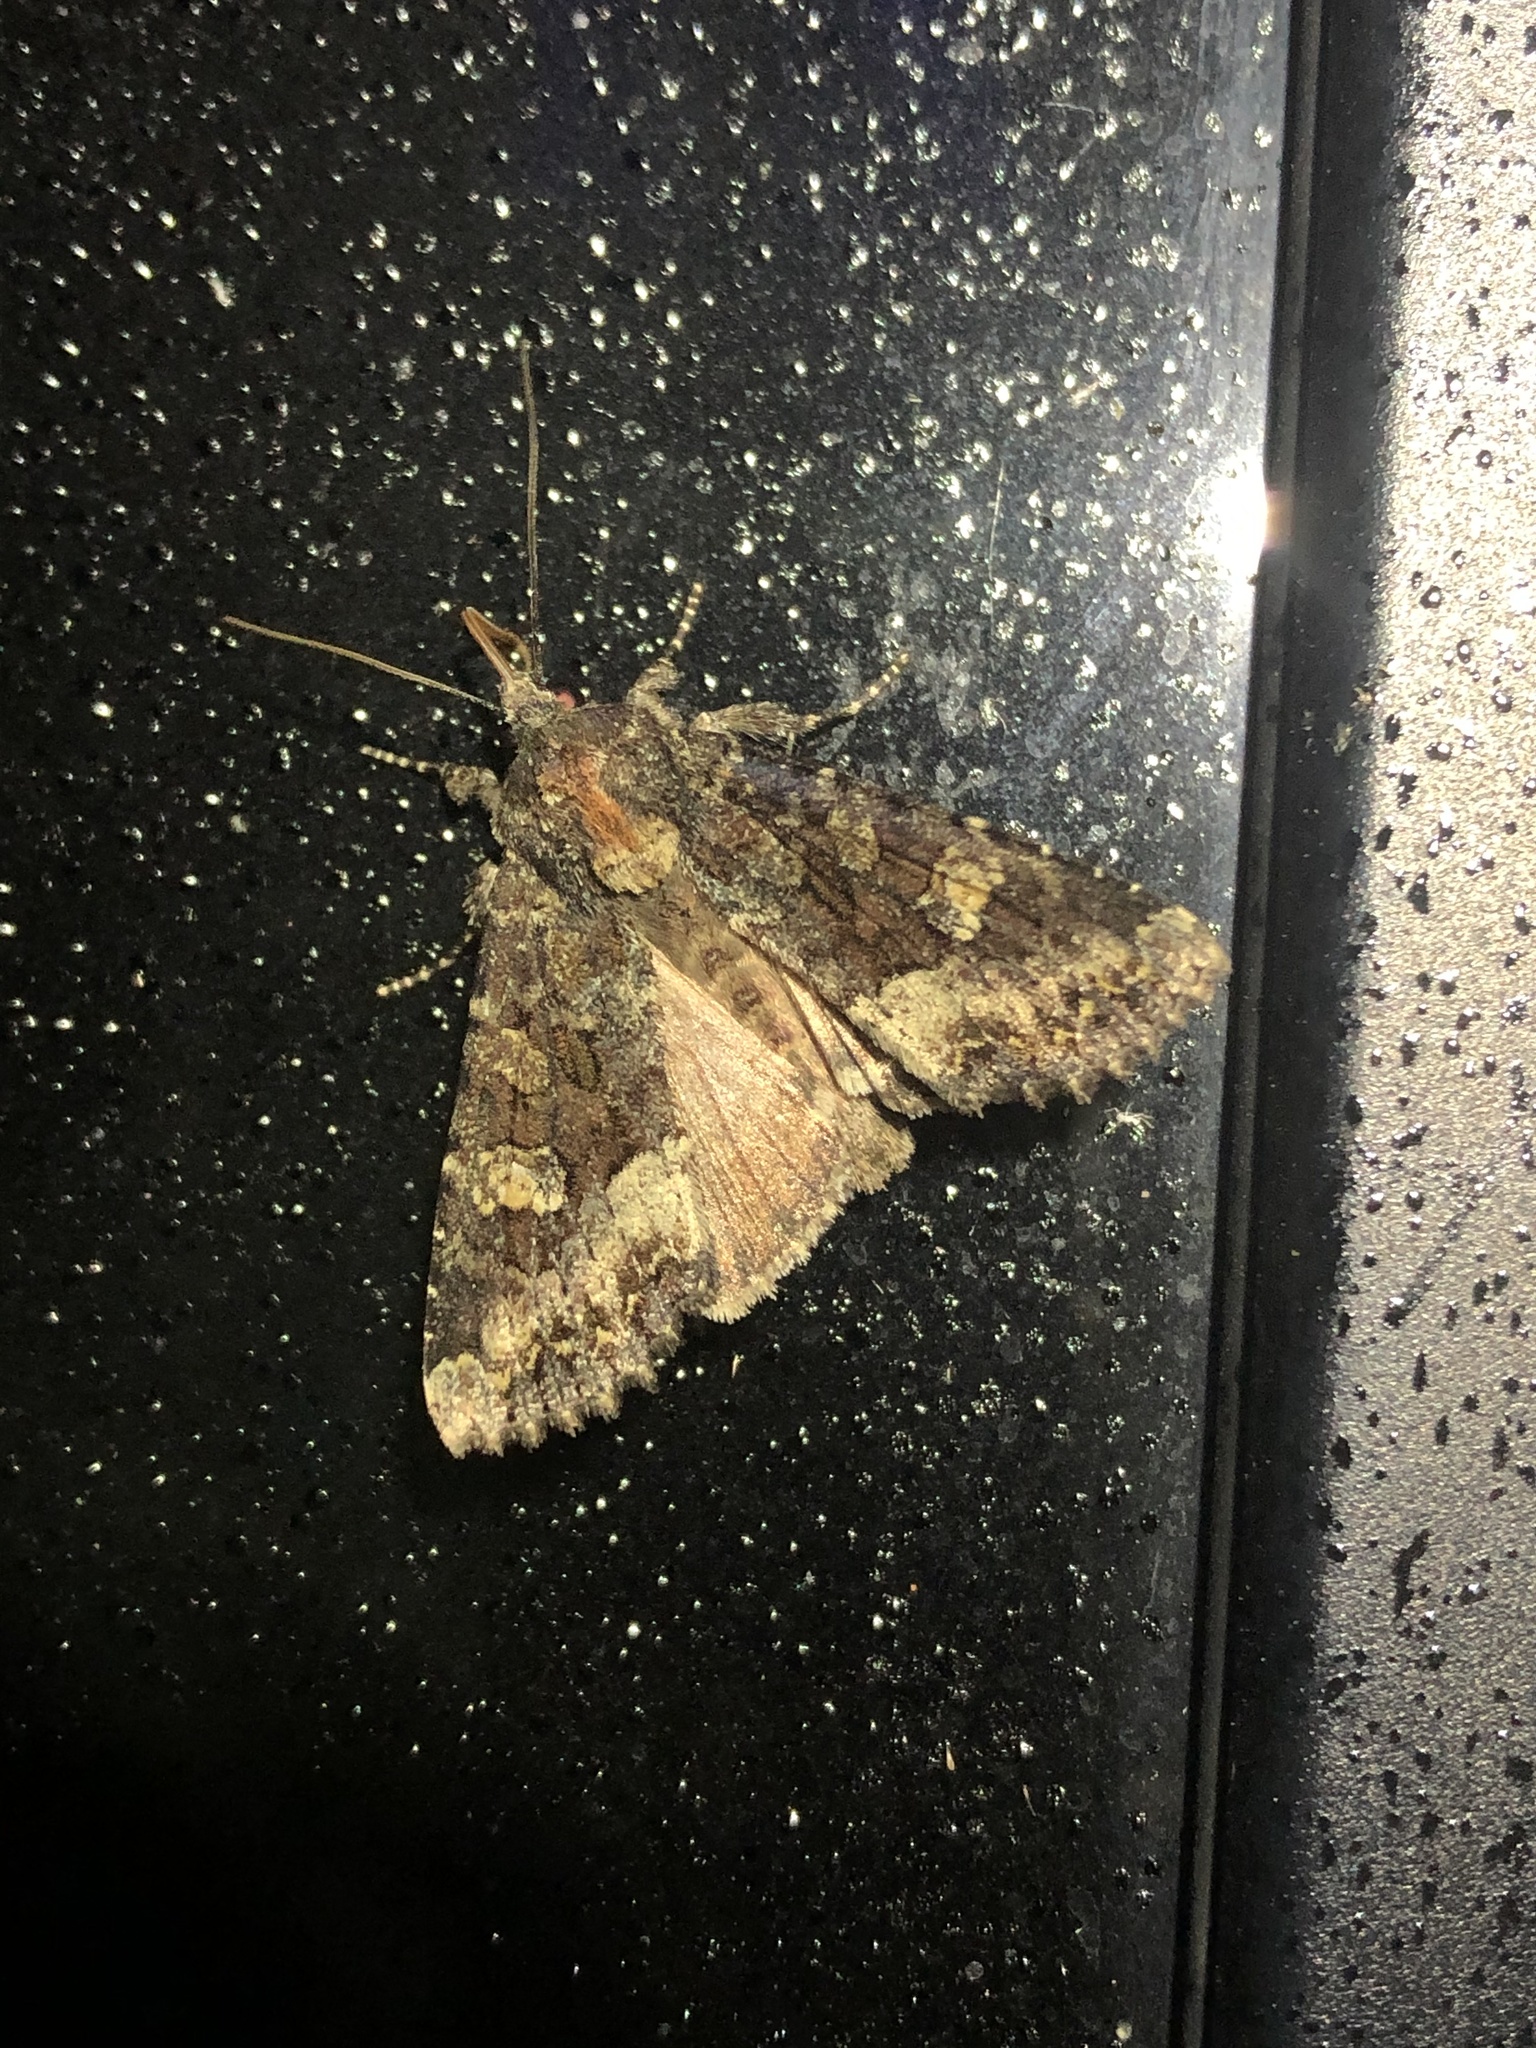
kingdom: Animalia
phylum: Arthropoda
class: Insecta
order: Lepidoptera
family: Noctuidae
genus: Apamea
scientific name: Apamea amputatrix
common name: Yellow-headed cutworm moth
